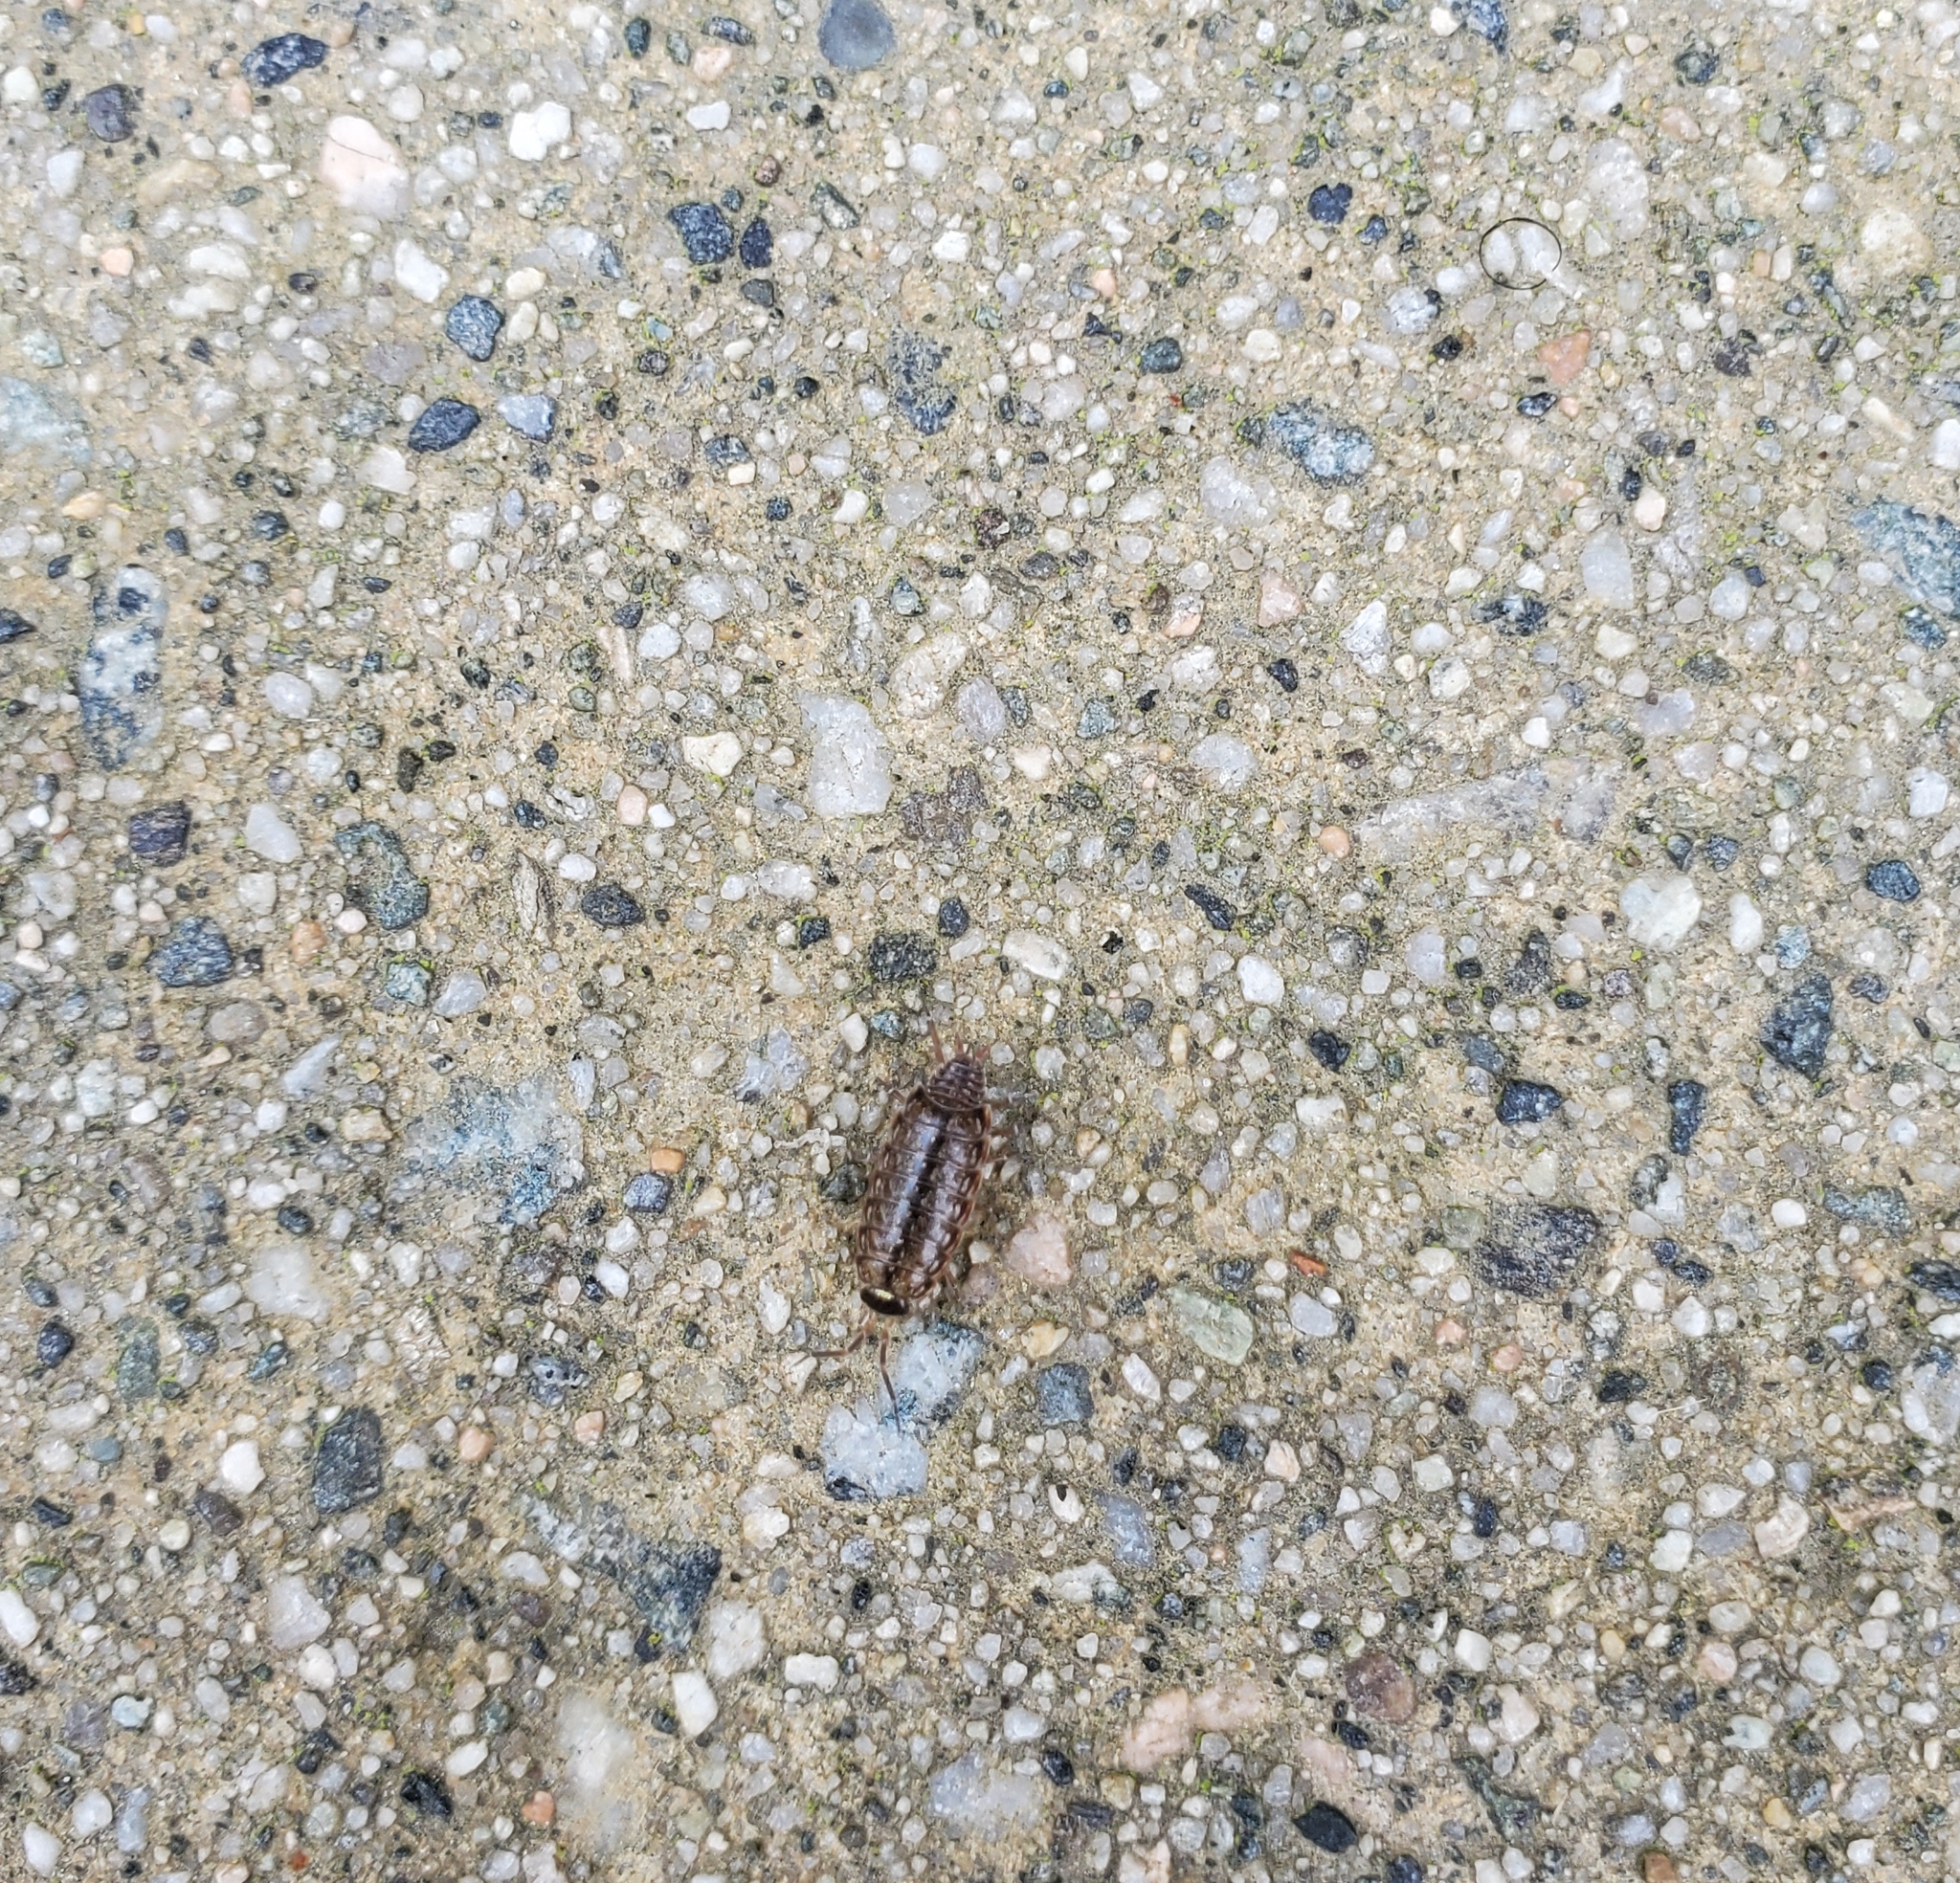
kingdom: Animalia
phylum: Arthropoda
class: Malacostraca
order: Isopoda
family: Philosciidae
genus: Philoscia
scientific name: Philoscia muscorum
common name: Common striped woodlouse
